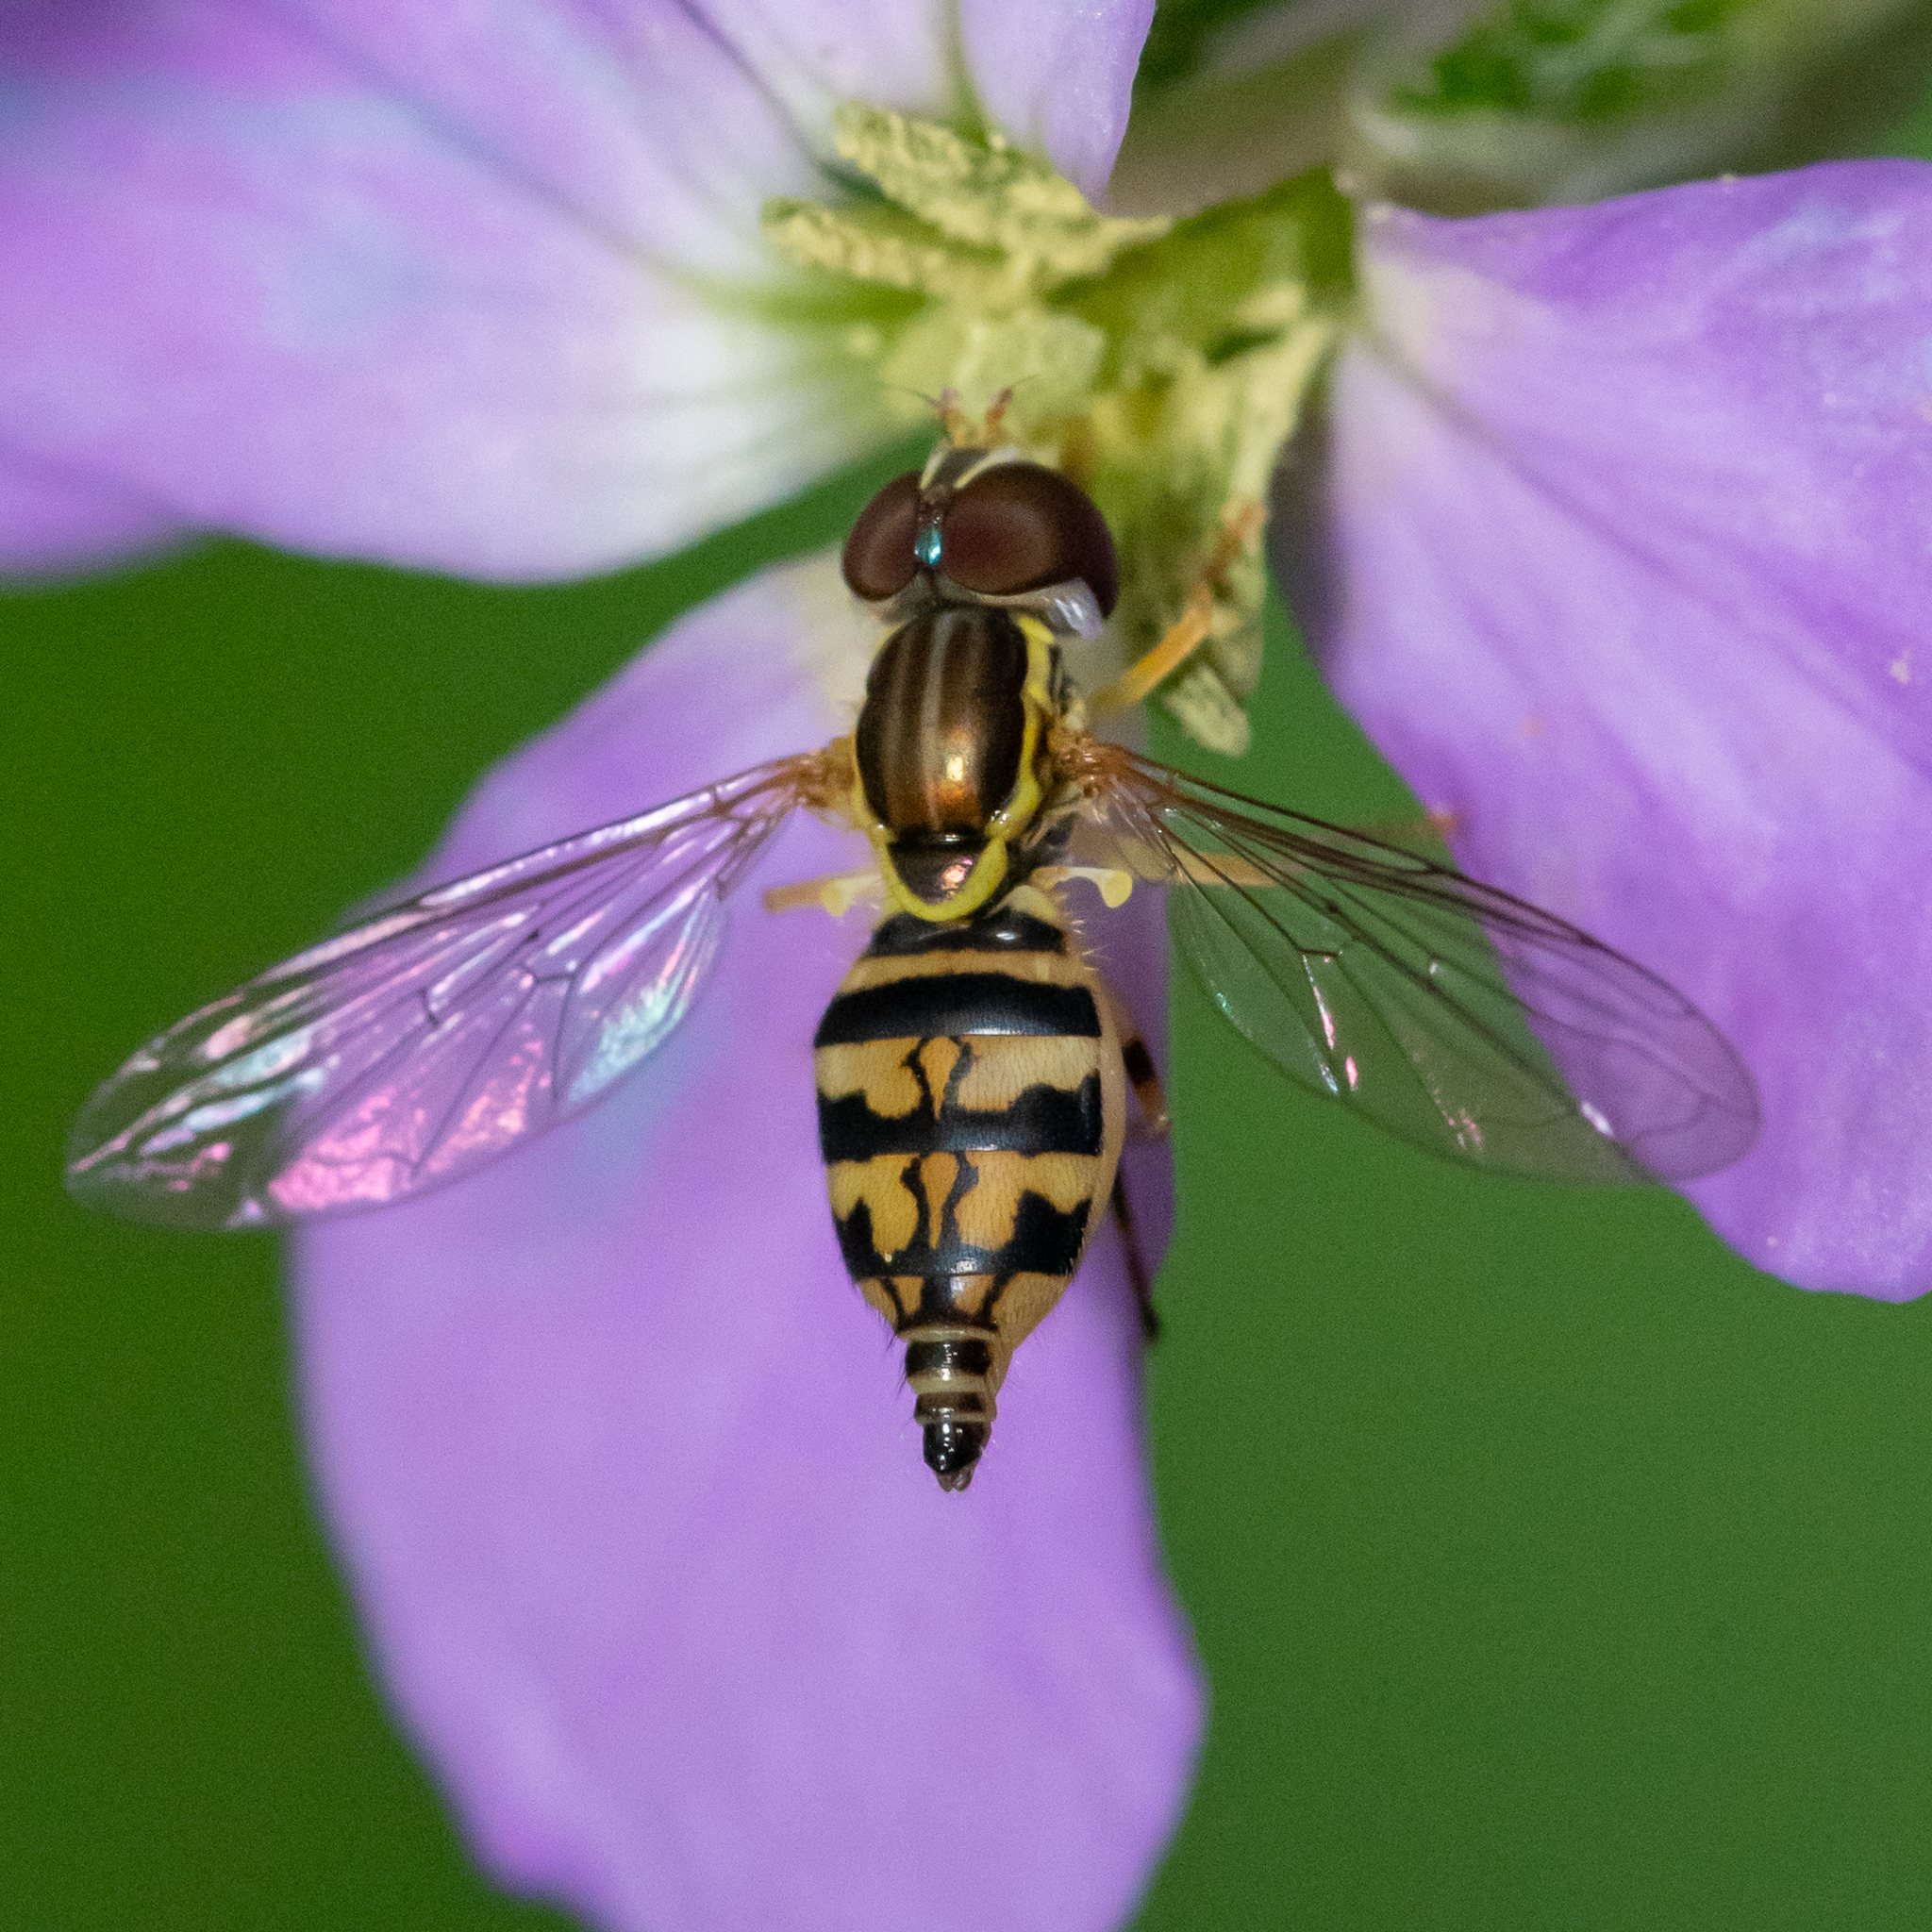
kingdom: Animalia
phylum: Arthropoda
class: Insecta
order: Diptera
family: Syrphidae
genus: Toxomerus
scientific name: Toxomerus geminatus
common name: Eastern calligrapher
